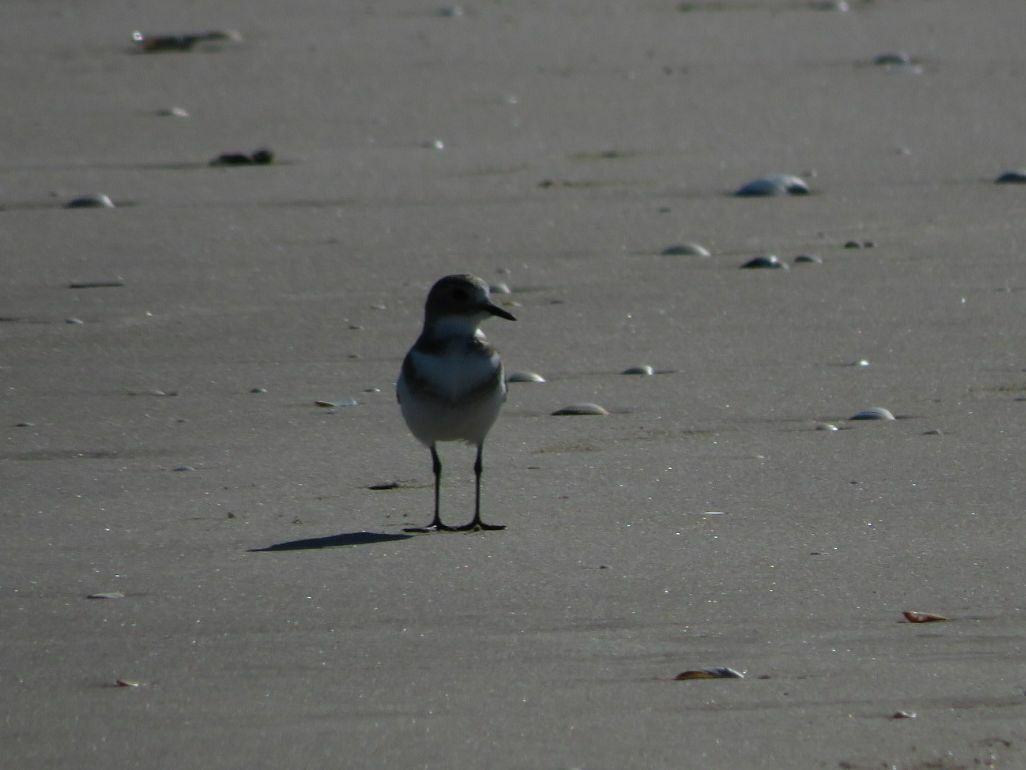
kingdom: Animalia
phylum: Chordata
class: Aves
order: Charadriiformes
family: Charadriidae
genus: Anarhynchus
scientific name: Anarhynchus
